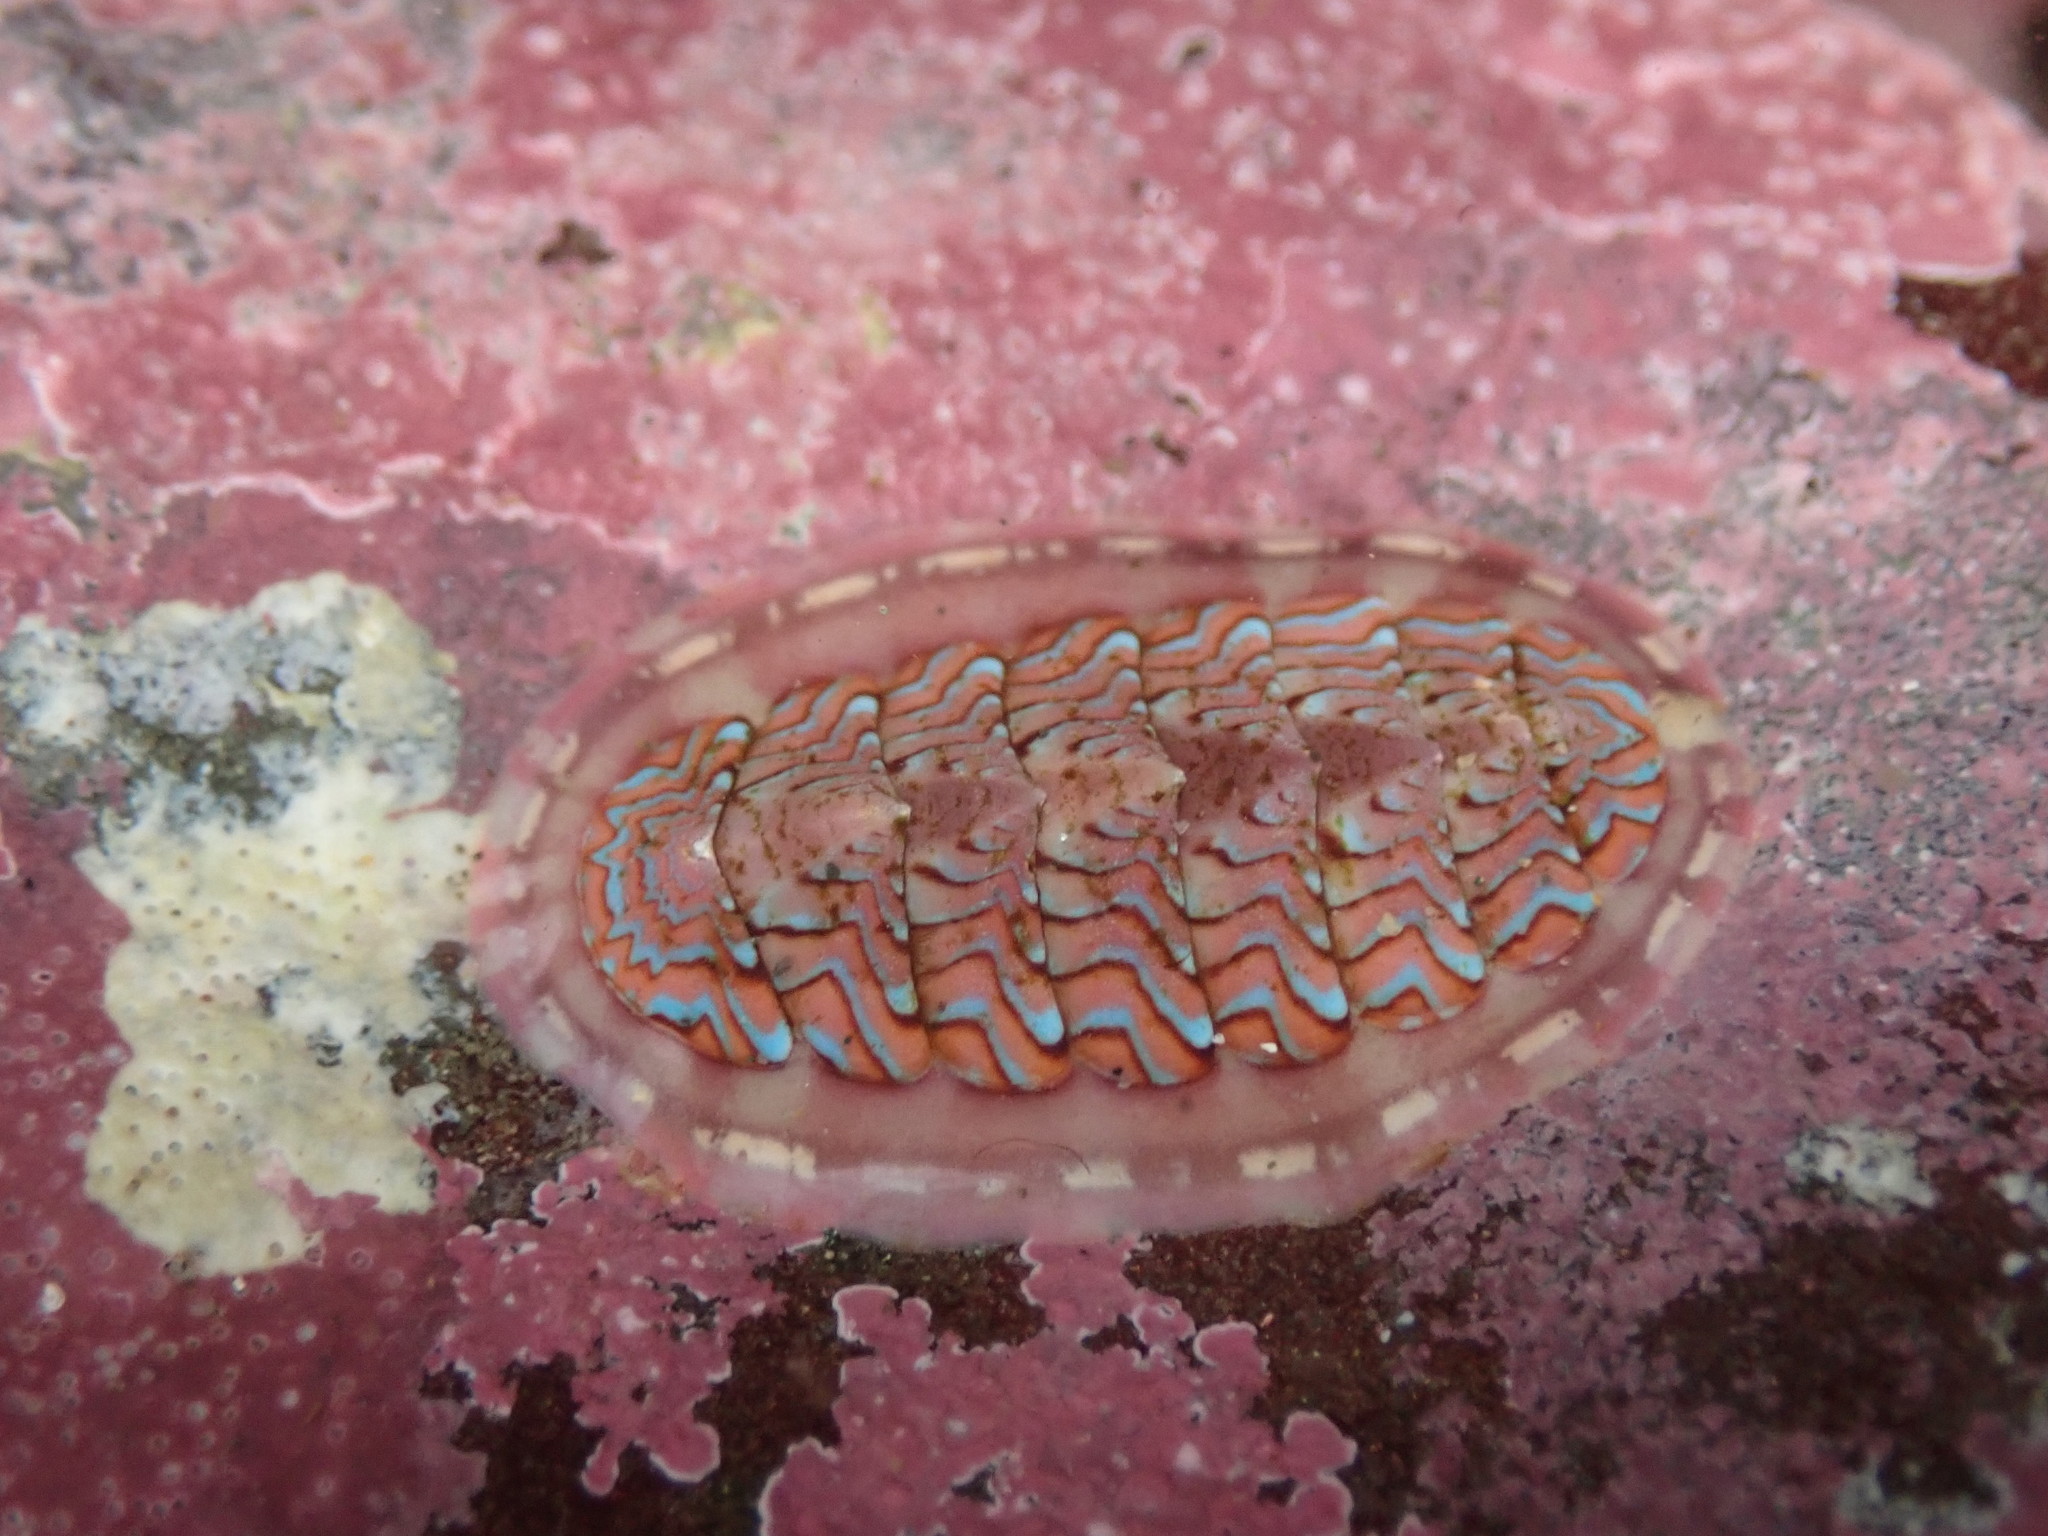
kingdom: Animalia
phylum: Mollusca
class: Polyplacophora
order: Chitonida
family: Tonicellidae
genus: Tonicella
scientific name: Tonicella lokii
